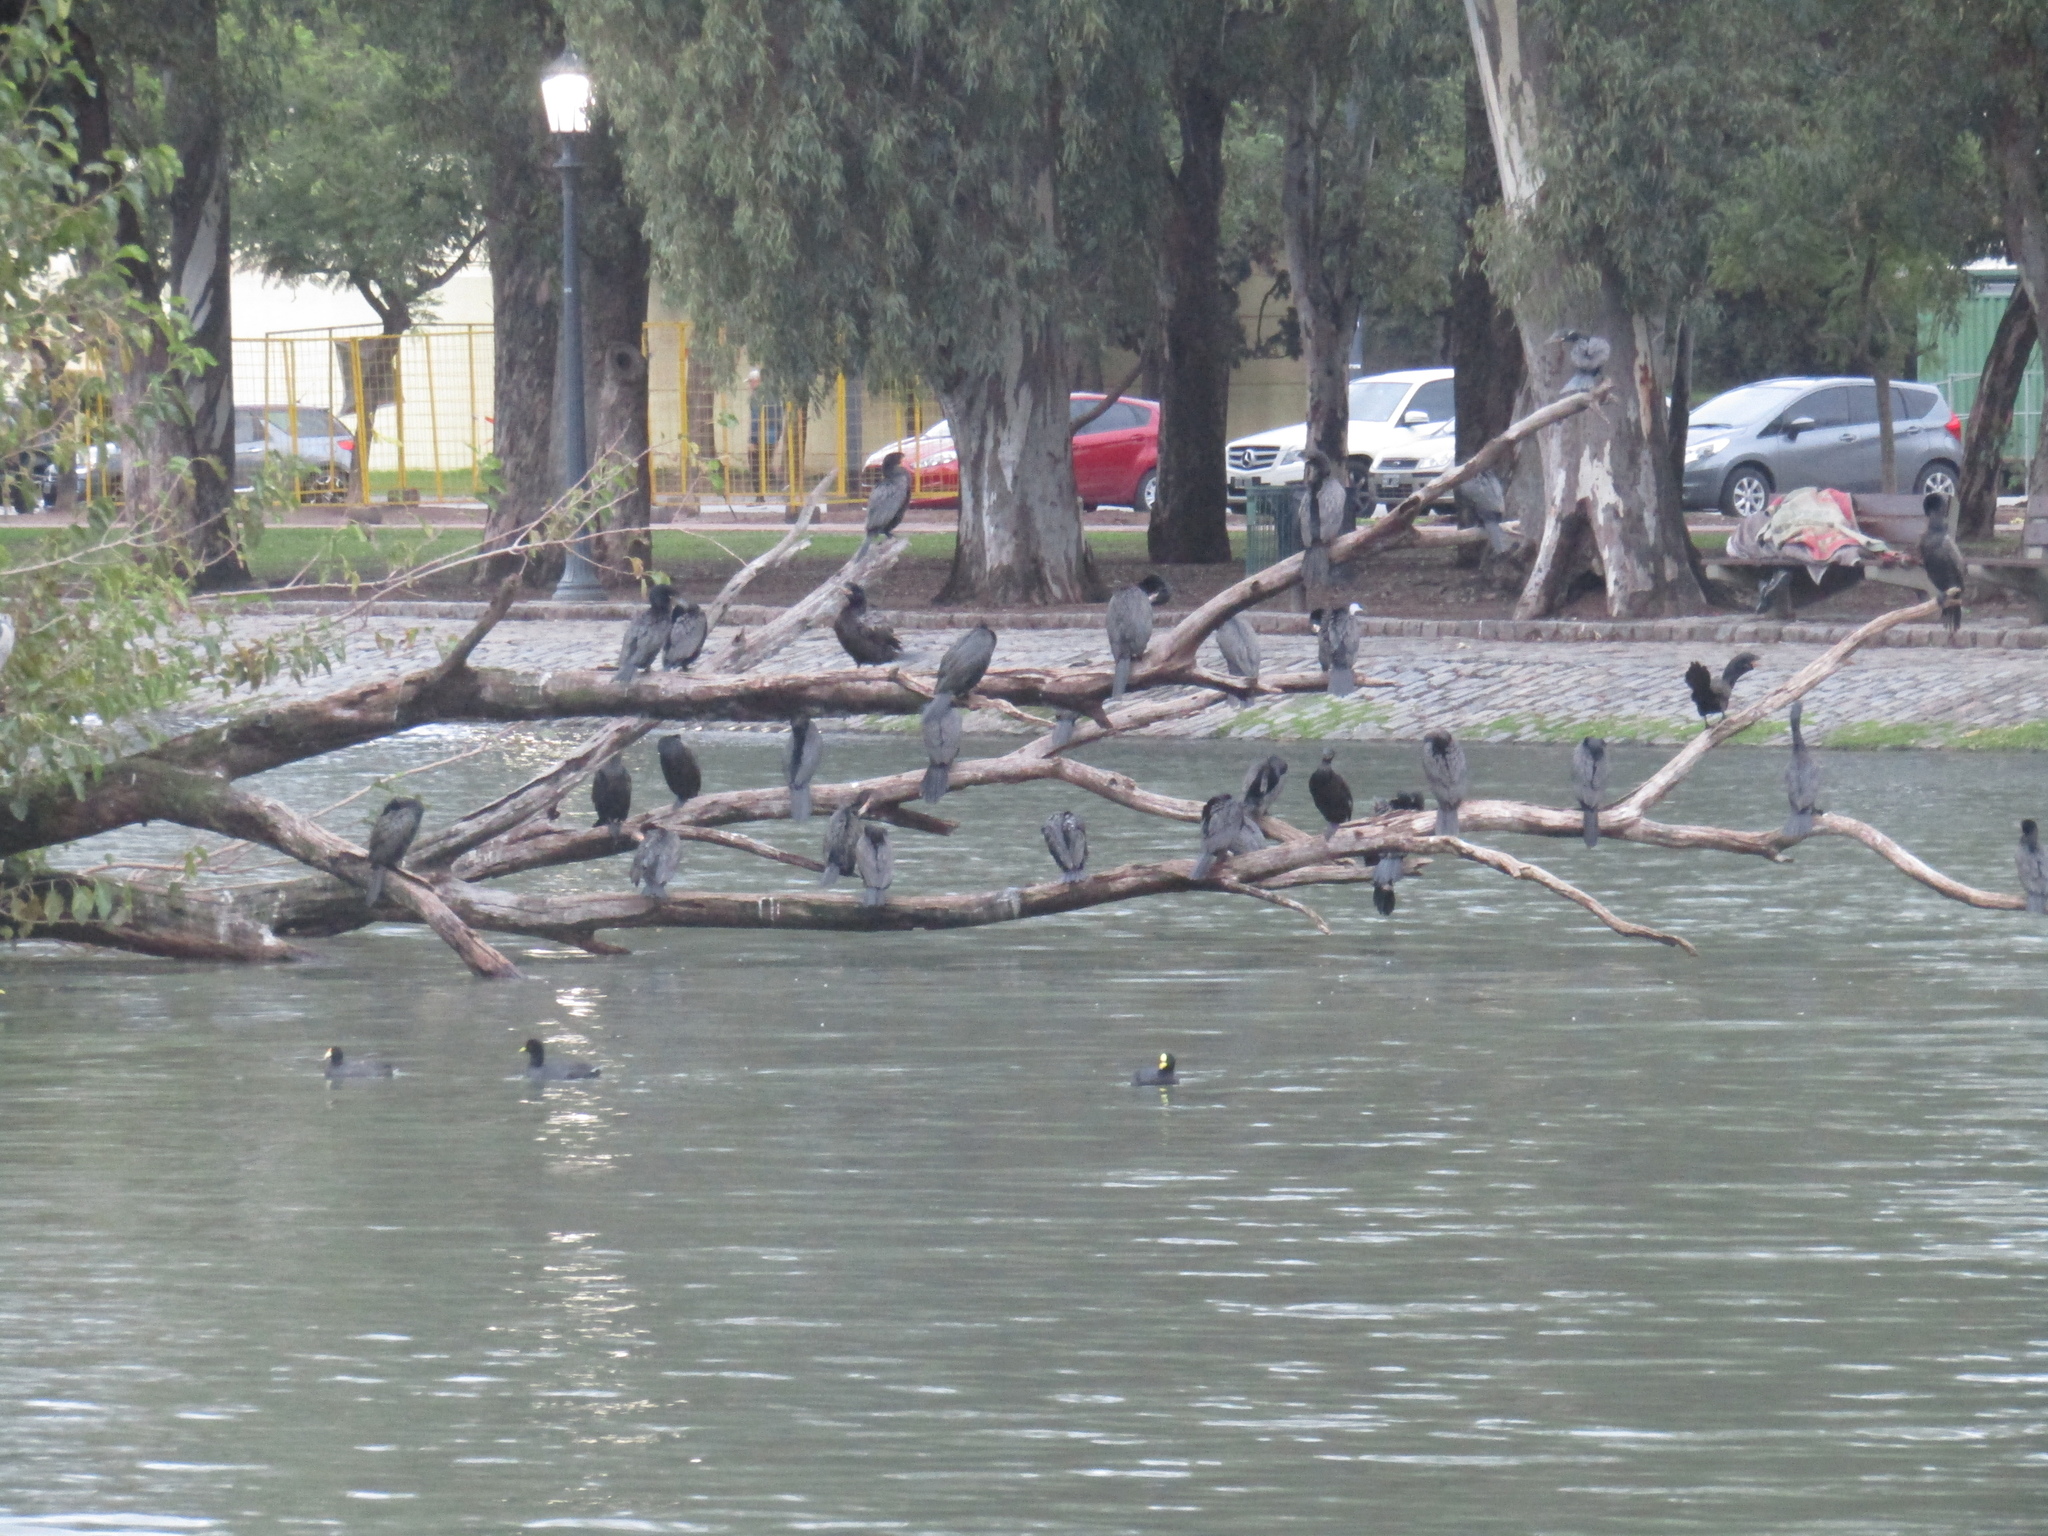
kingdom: Animalia
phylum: Chordata
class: Aves
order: Suliformes
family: Phalacrocoracidae
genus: Phalacrocorax
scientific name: Phalacrocorax brasilianus
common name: Neotropic cormorant
